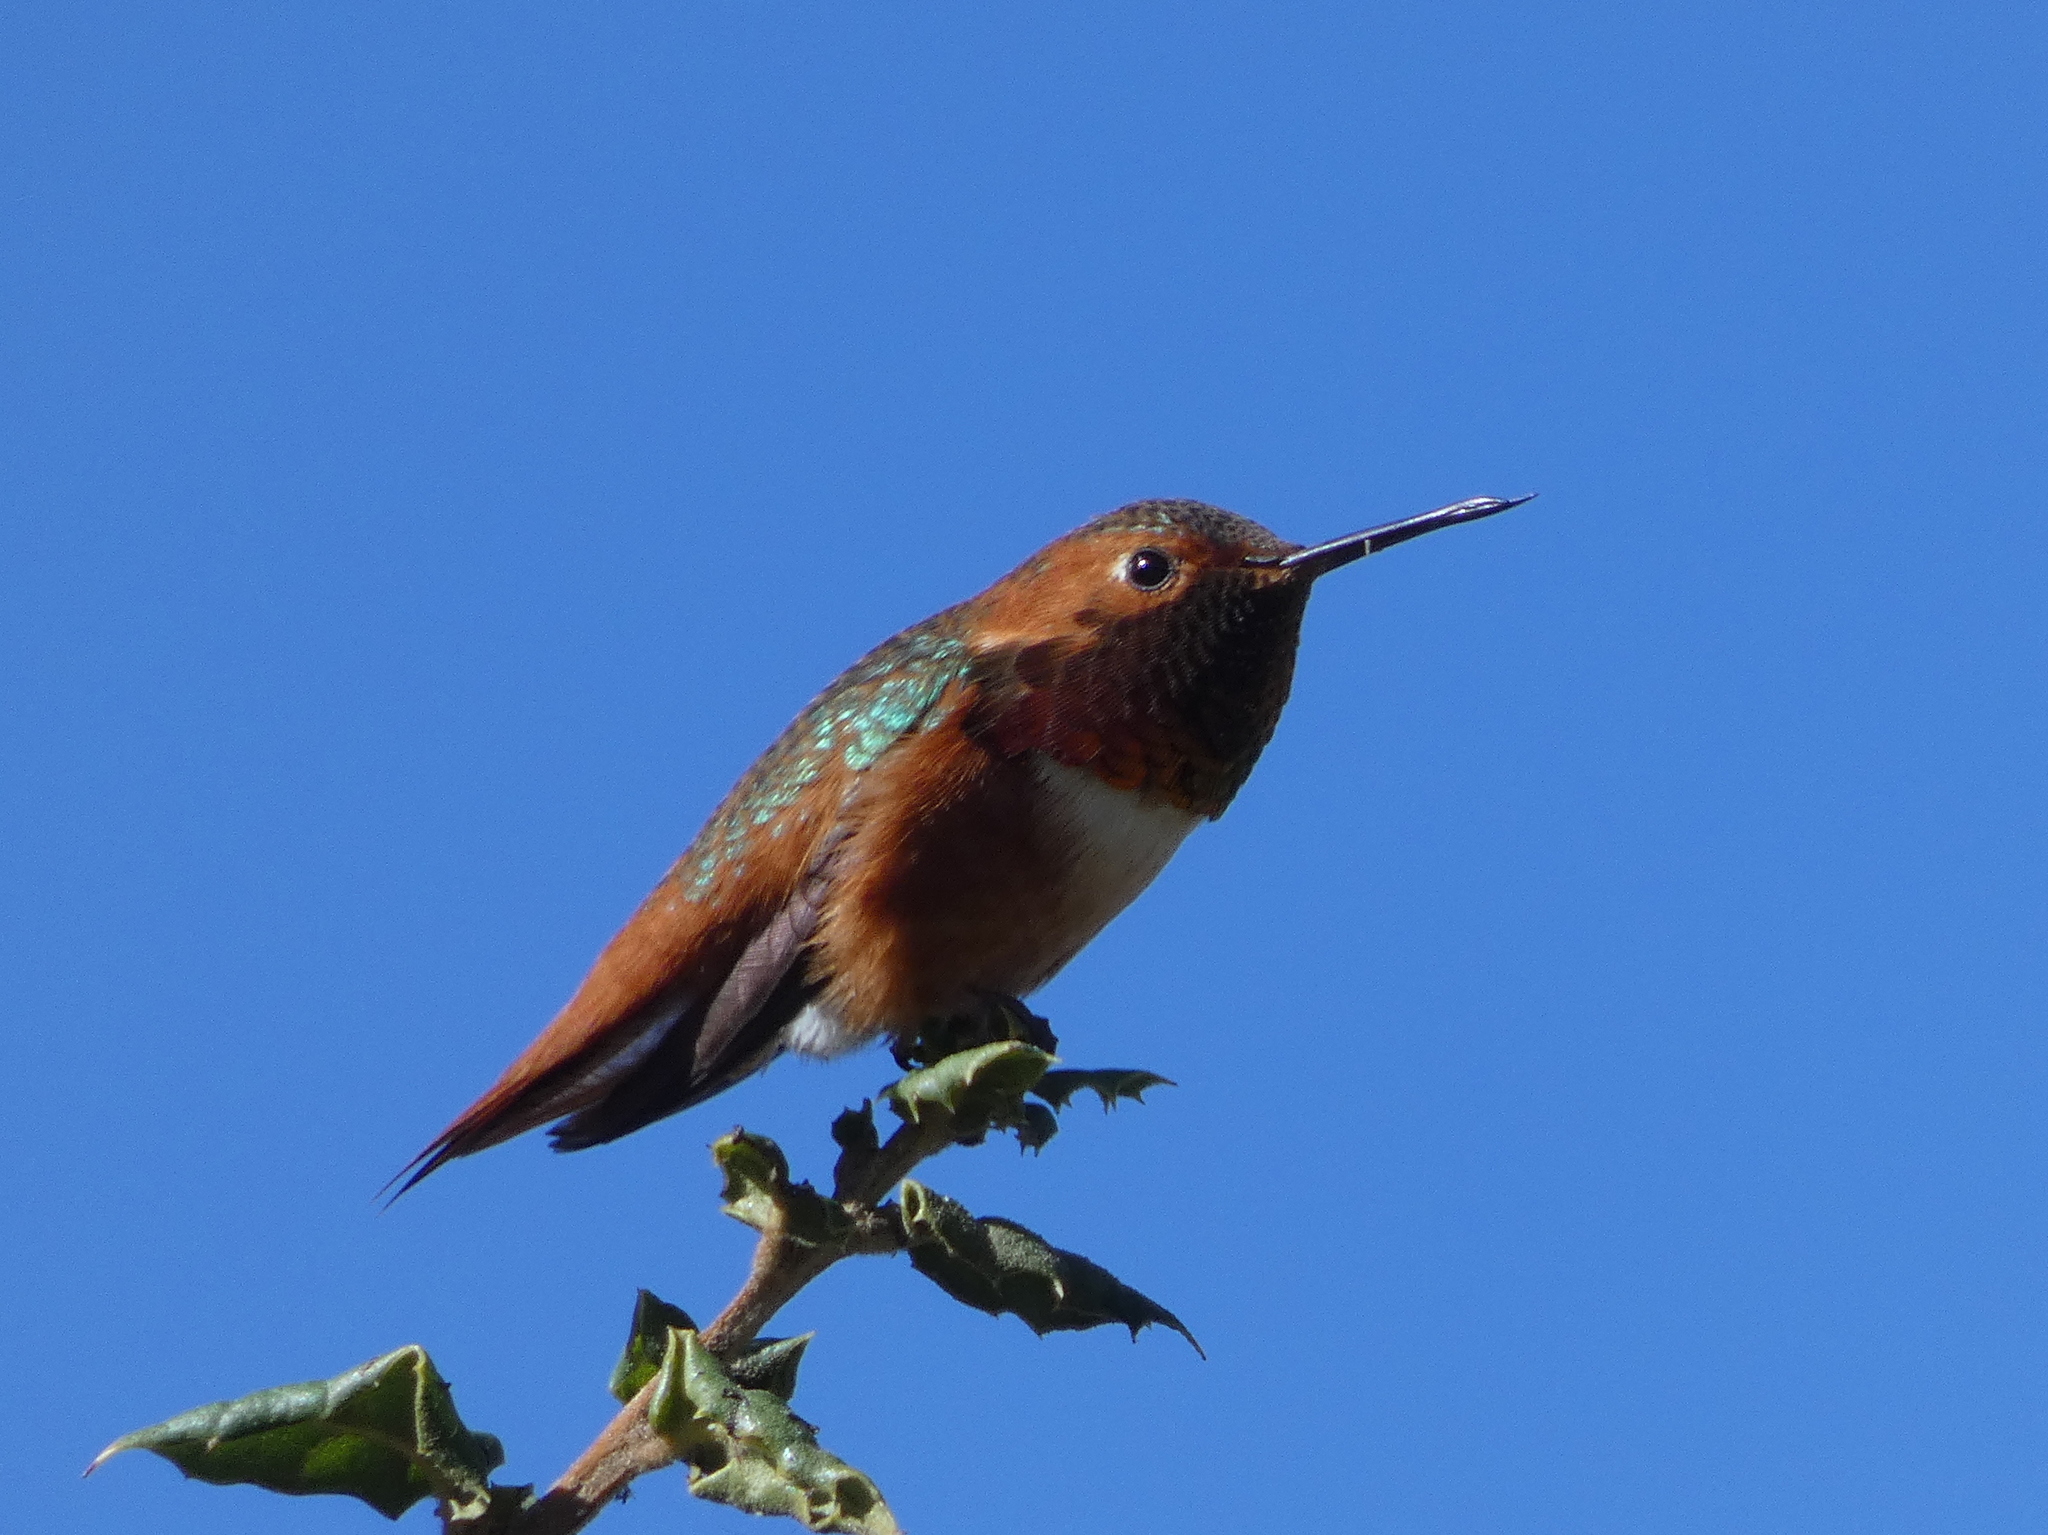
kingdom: Animalia
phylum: Chordata
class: Aves
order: Apodiformes
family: Trochilidae
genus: Selasphorus
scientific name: Selasphorus sasin
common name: Allen's hummingbird
